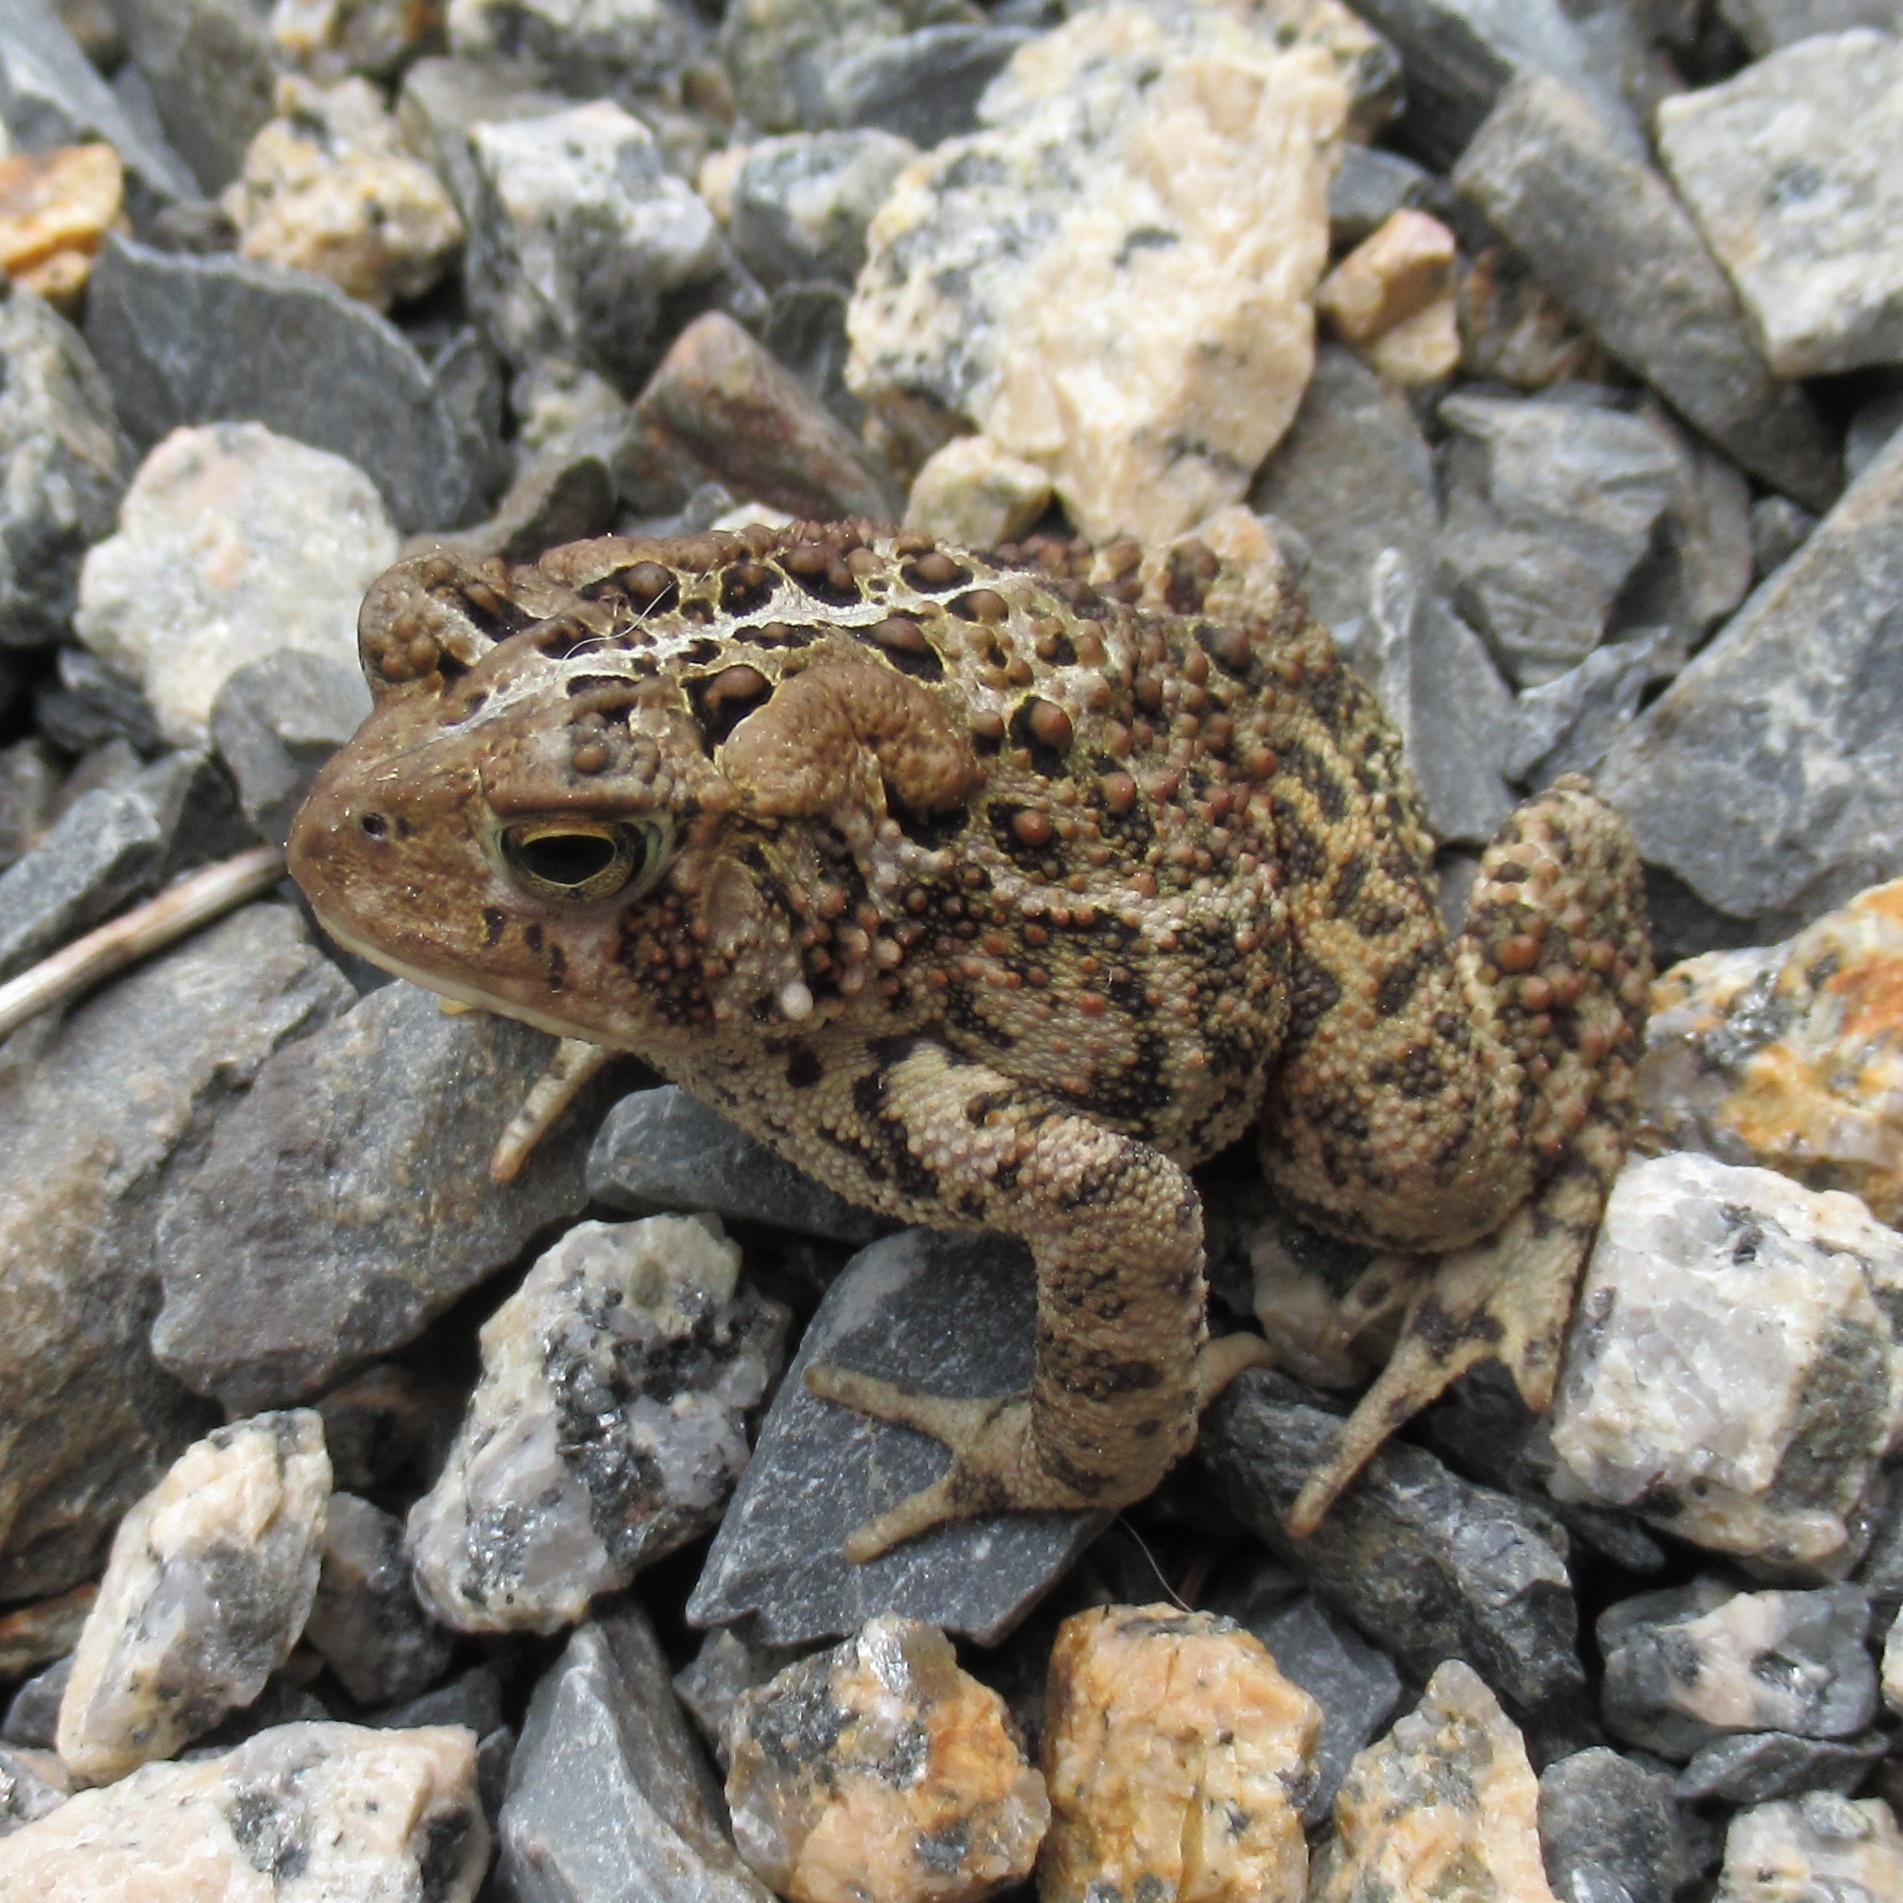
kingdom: Animalia
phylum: Chordata
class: Amphibia
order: Anura
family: Bufonidae
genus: Anaxyrus
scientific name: Anaxyrus americanus
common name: American toad
